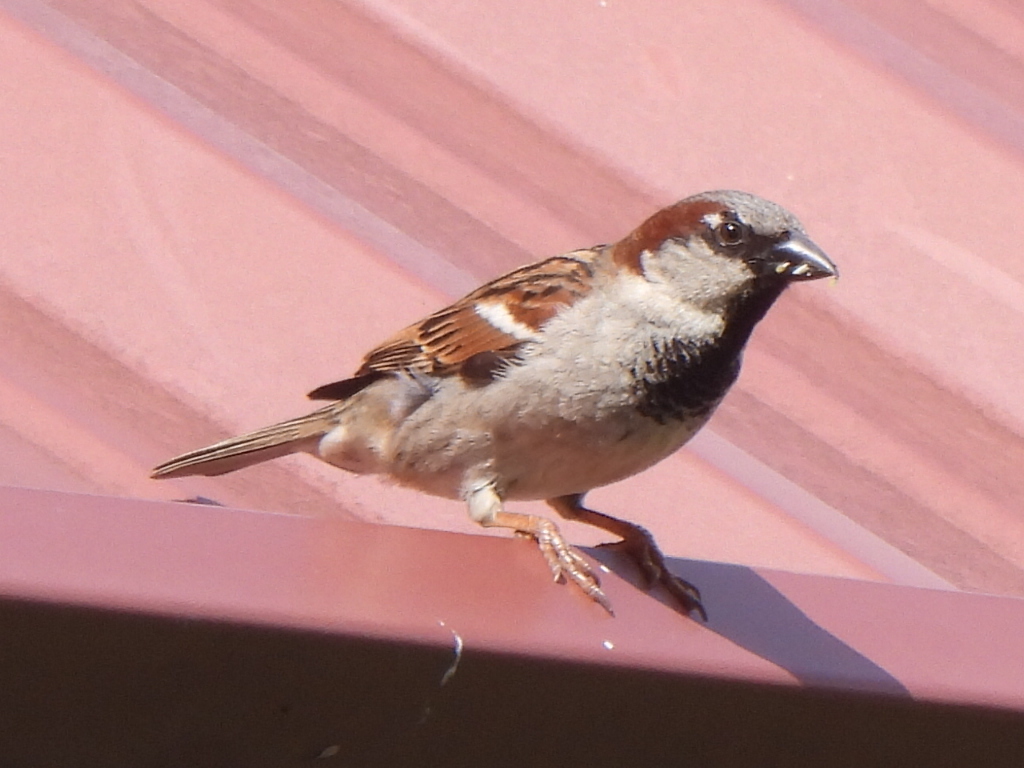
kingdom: Animalia
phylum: Chordata
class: Aves
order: Passeriformes
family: Passeridae
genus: Passer
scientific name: Passer domesticus
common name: House sparrow
